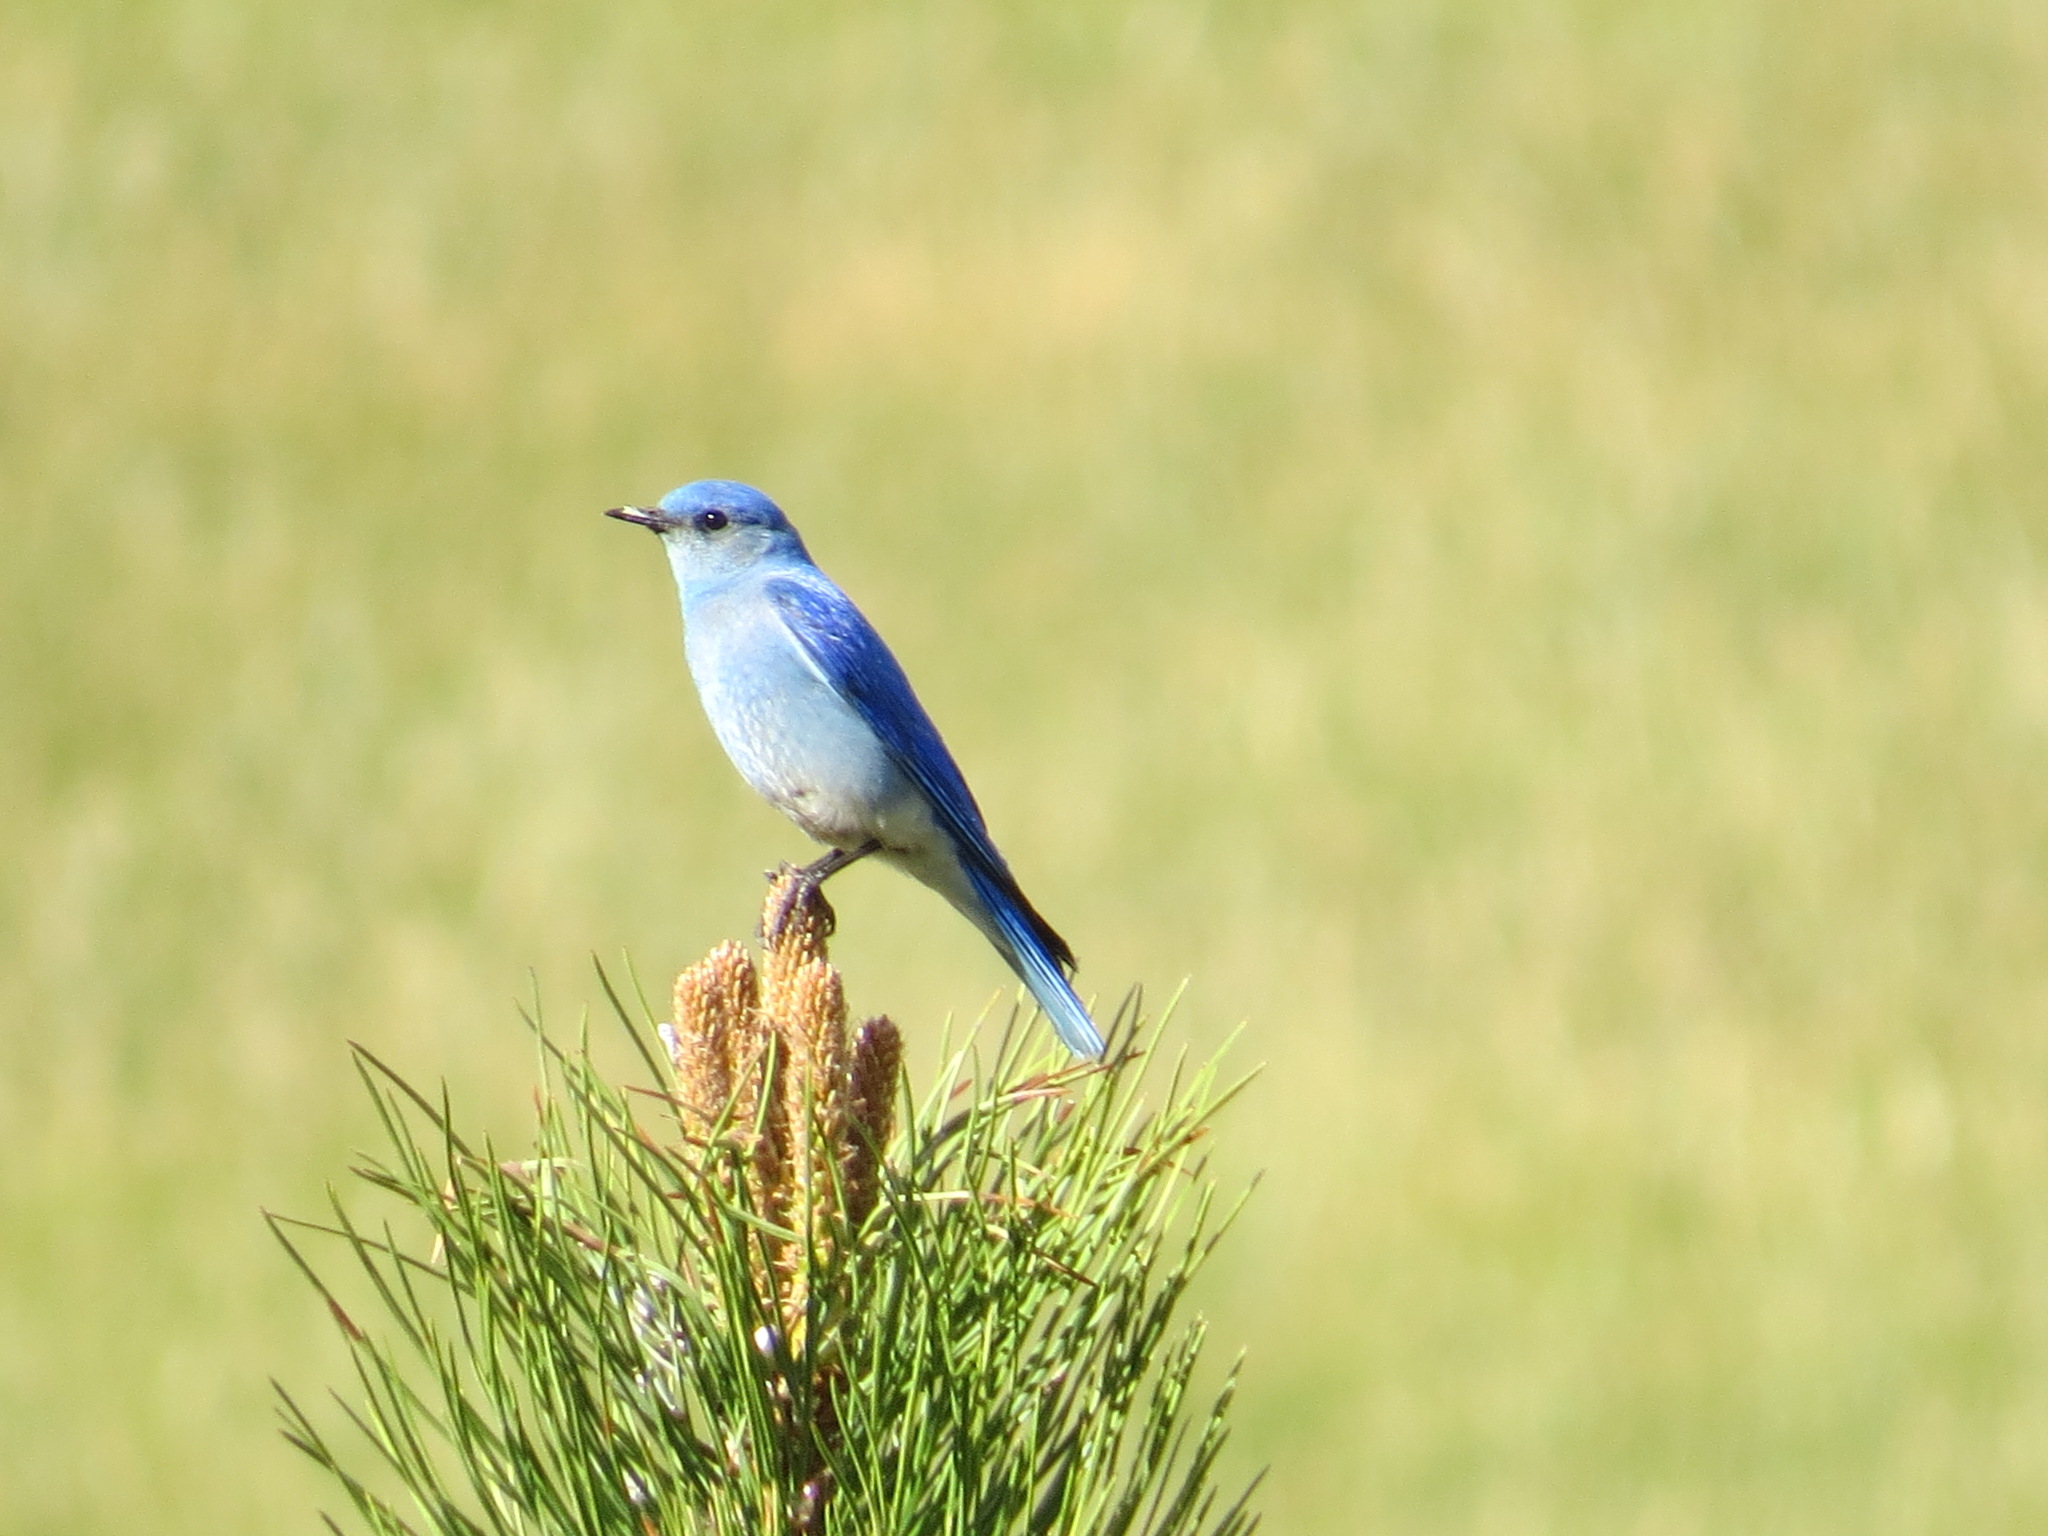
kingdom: Animalia
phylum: Chordata
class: Aves
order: Passeriformes
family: Turdidae
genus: Sialia
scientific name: Sialia currucoides
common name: Mountain bluebird
